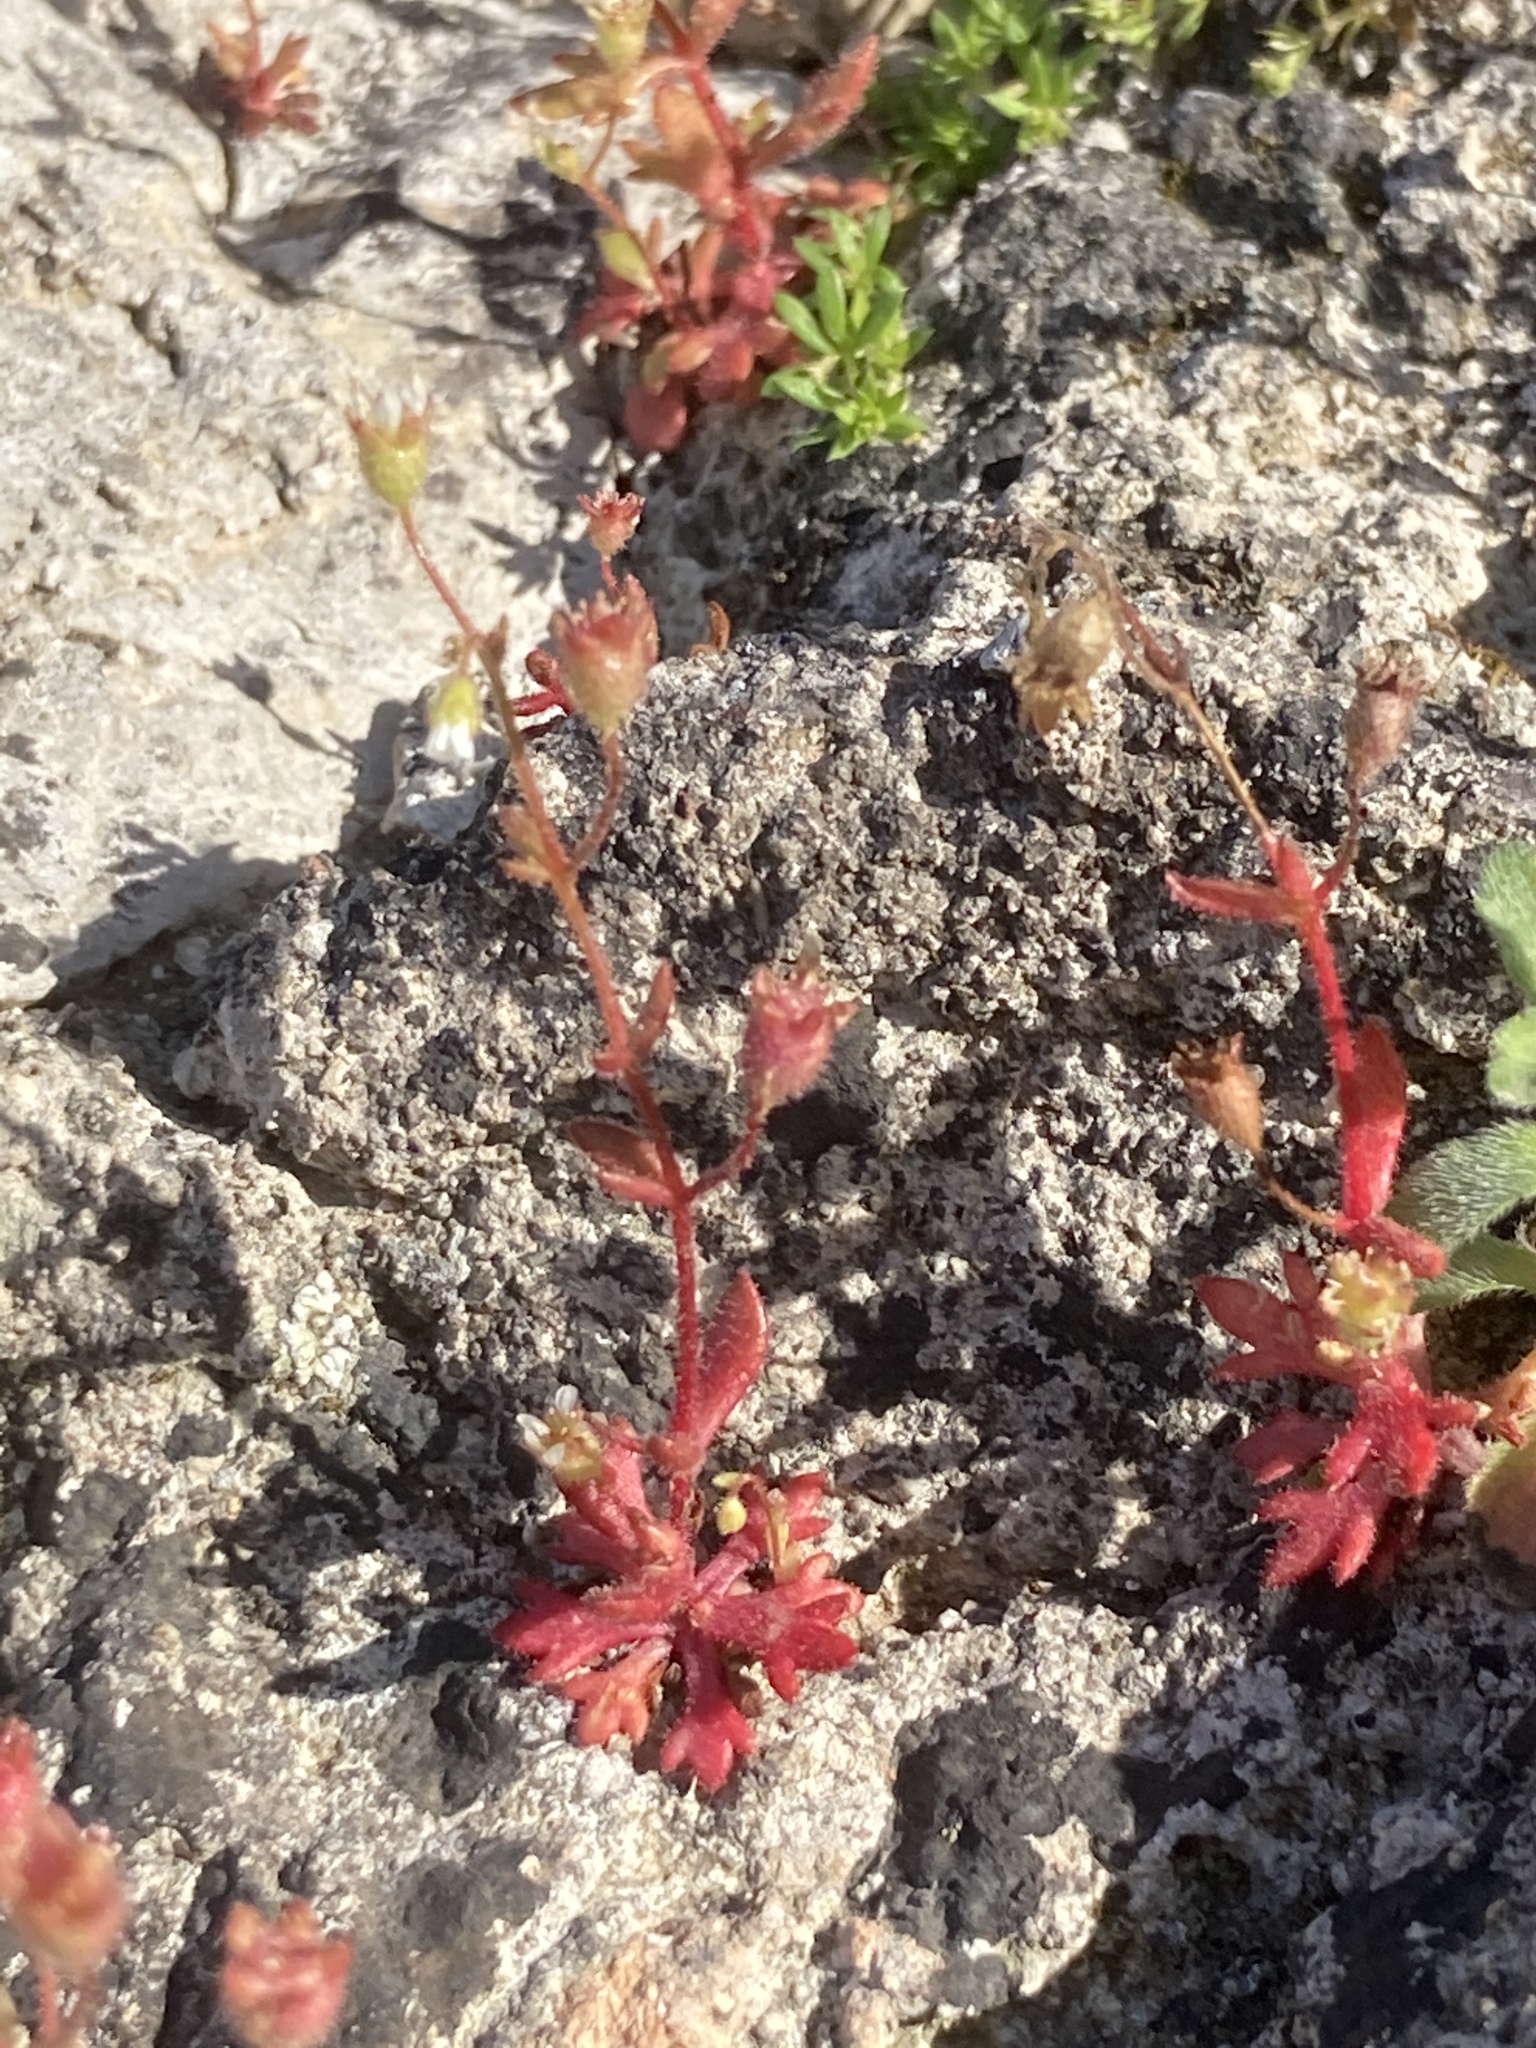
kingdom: Plantae
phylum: Tracheophyta
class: Magnoliopsida
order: Saxifragales
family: Saxifragaceae
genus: Saxifraga
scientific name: Saxifraga tridactylites
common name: Rue-leaved saxifrage
